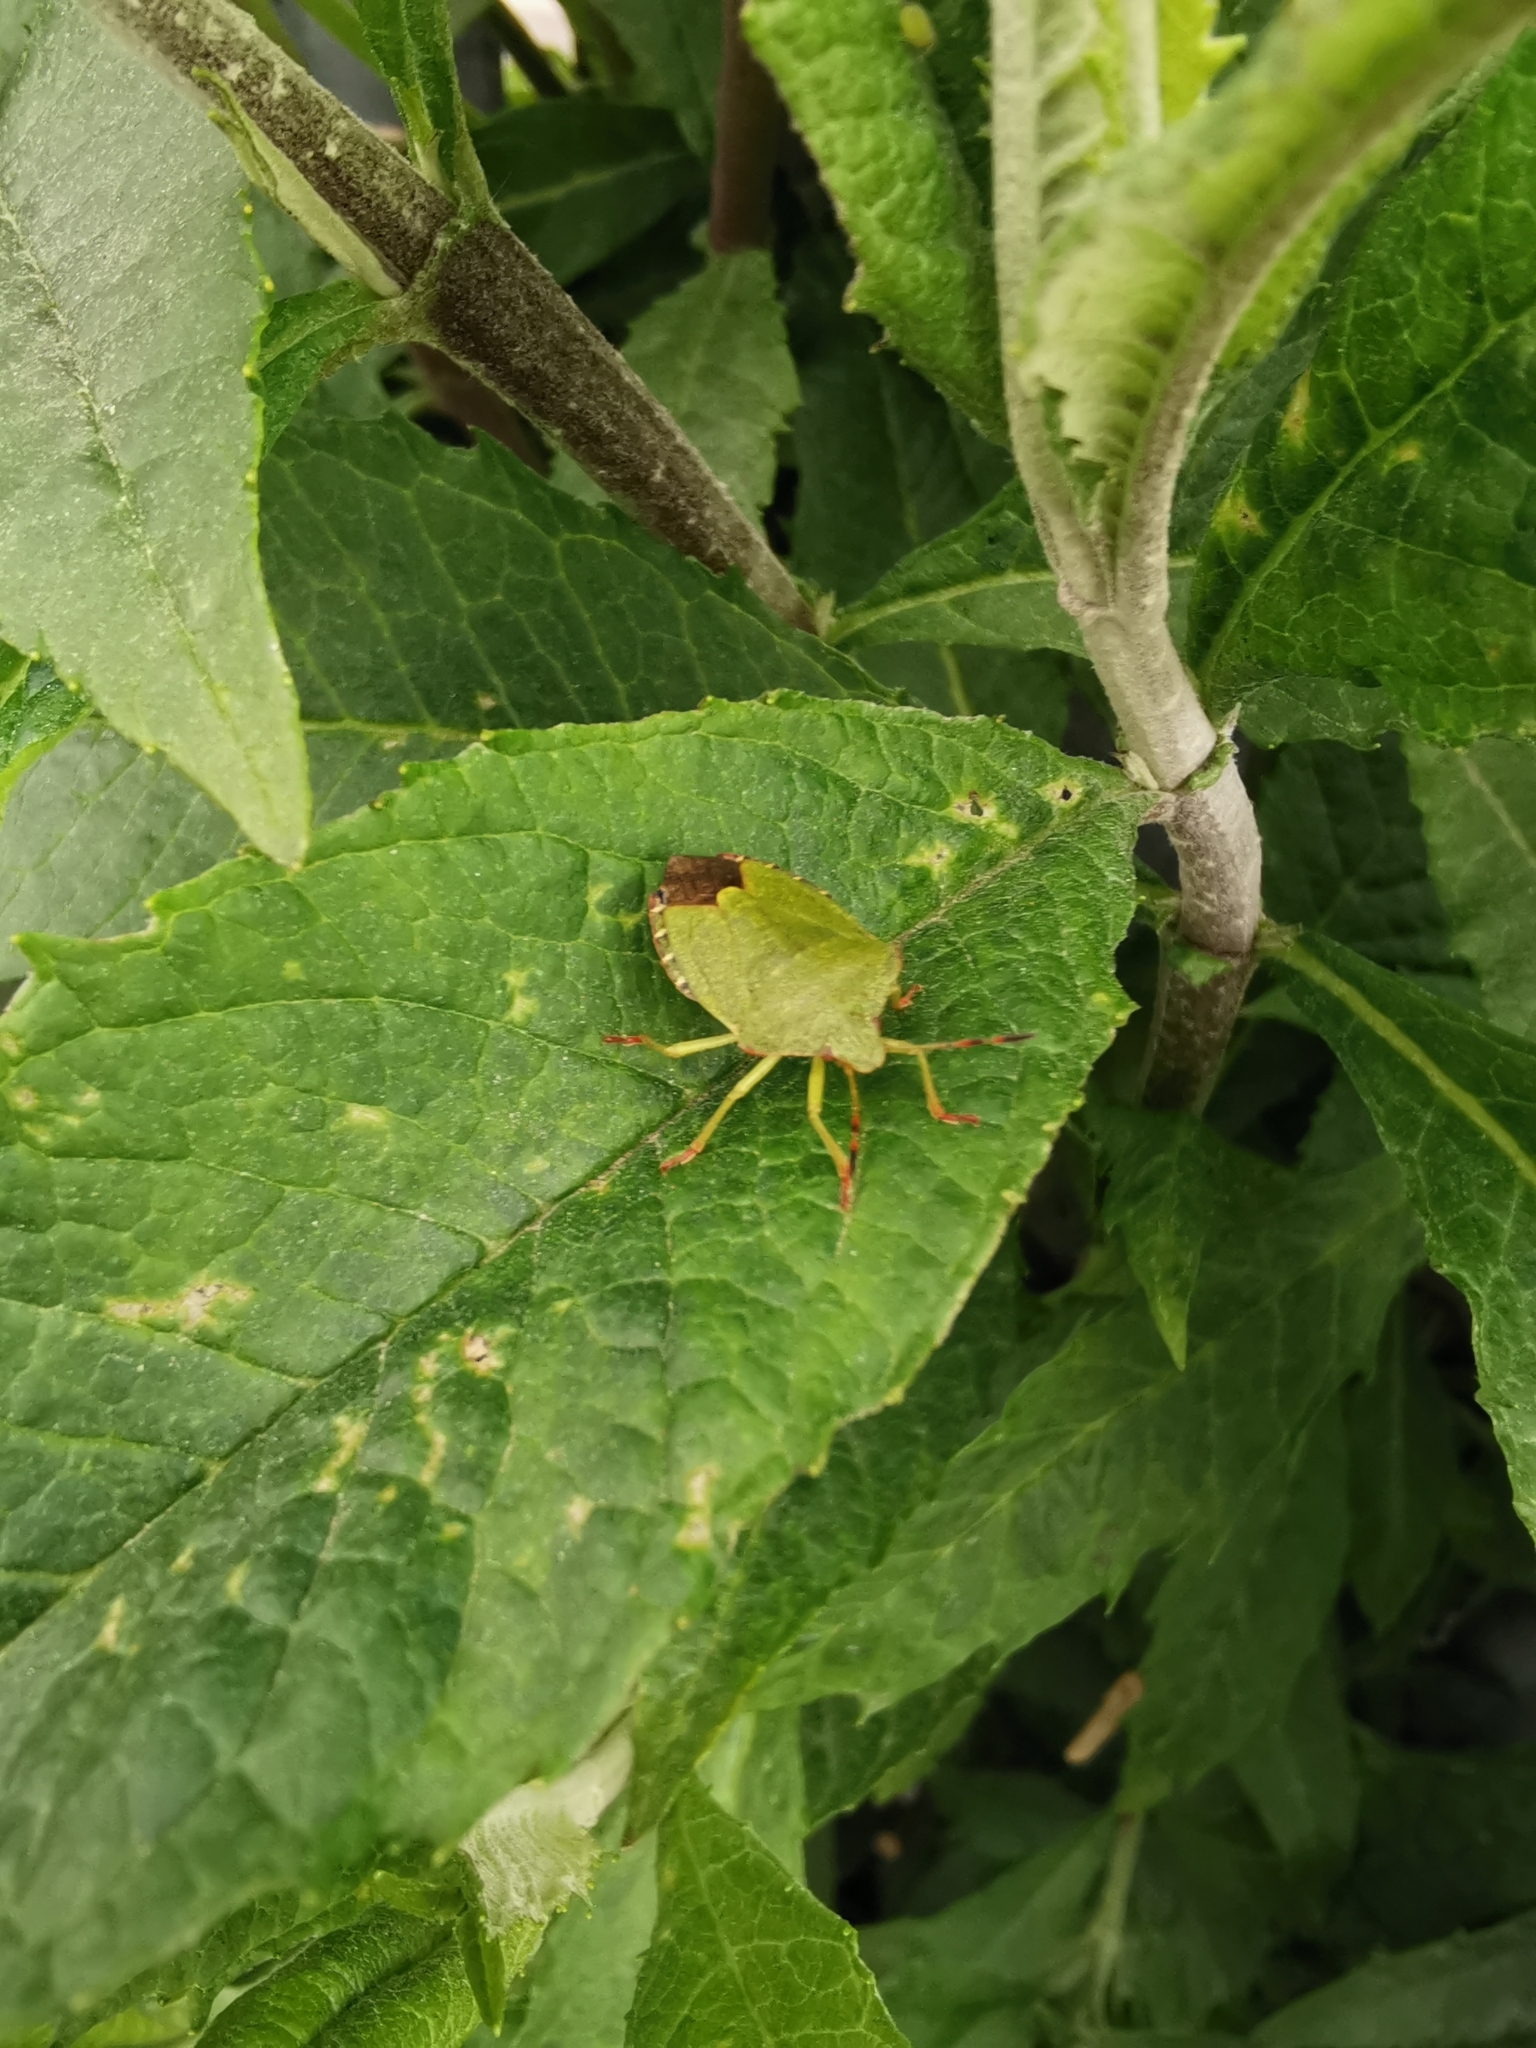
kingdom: Animalia
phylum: Arthropoda
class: Insecta
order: Hemiptera
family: Pentatomidae
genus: Palomena
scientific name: Palomena prasina
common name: Green shieldbug
